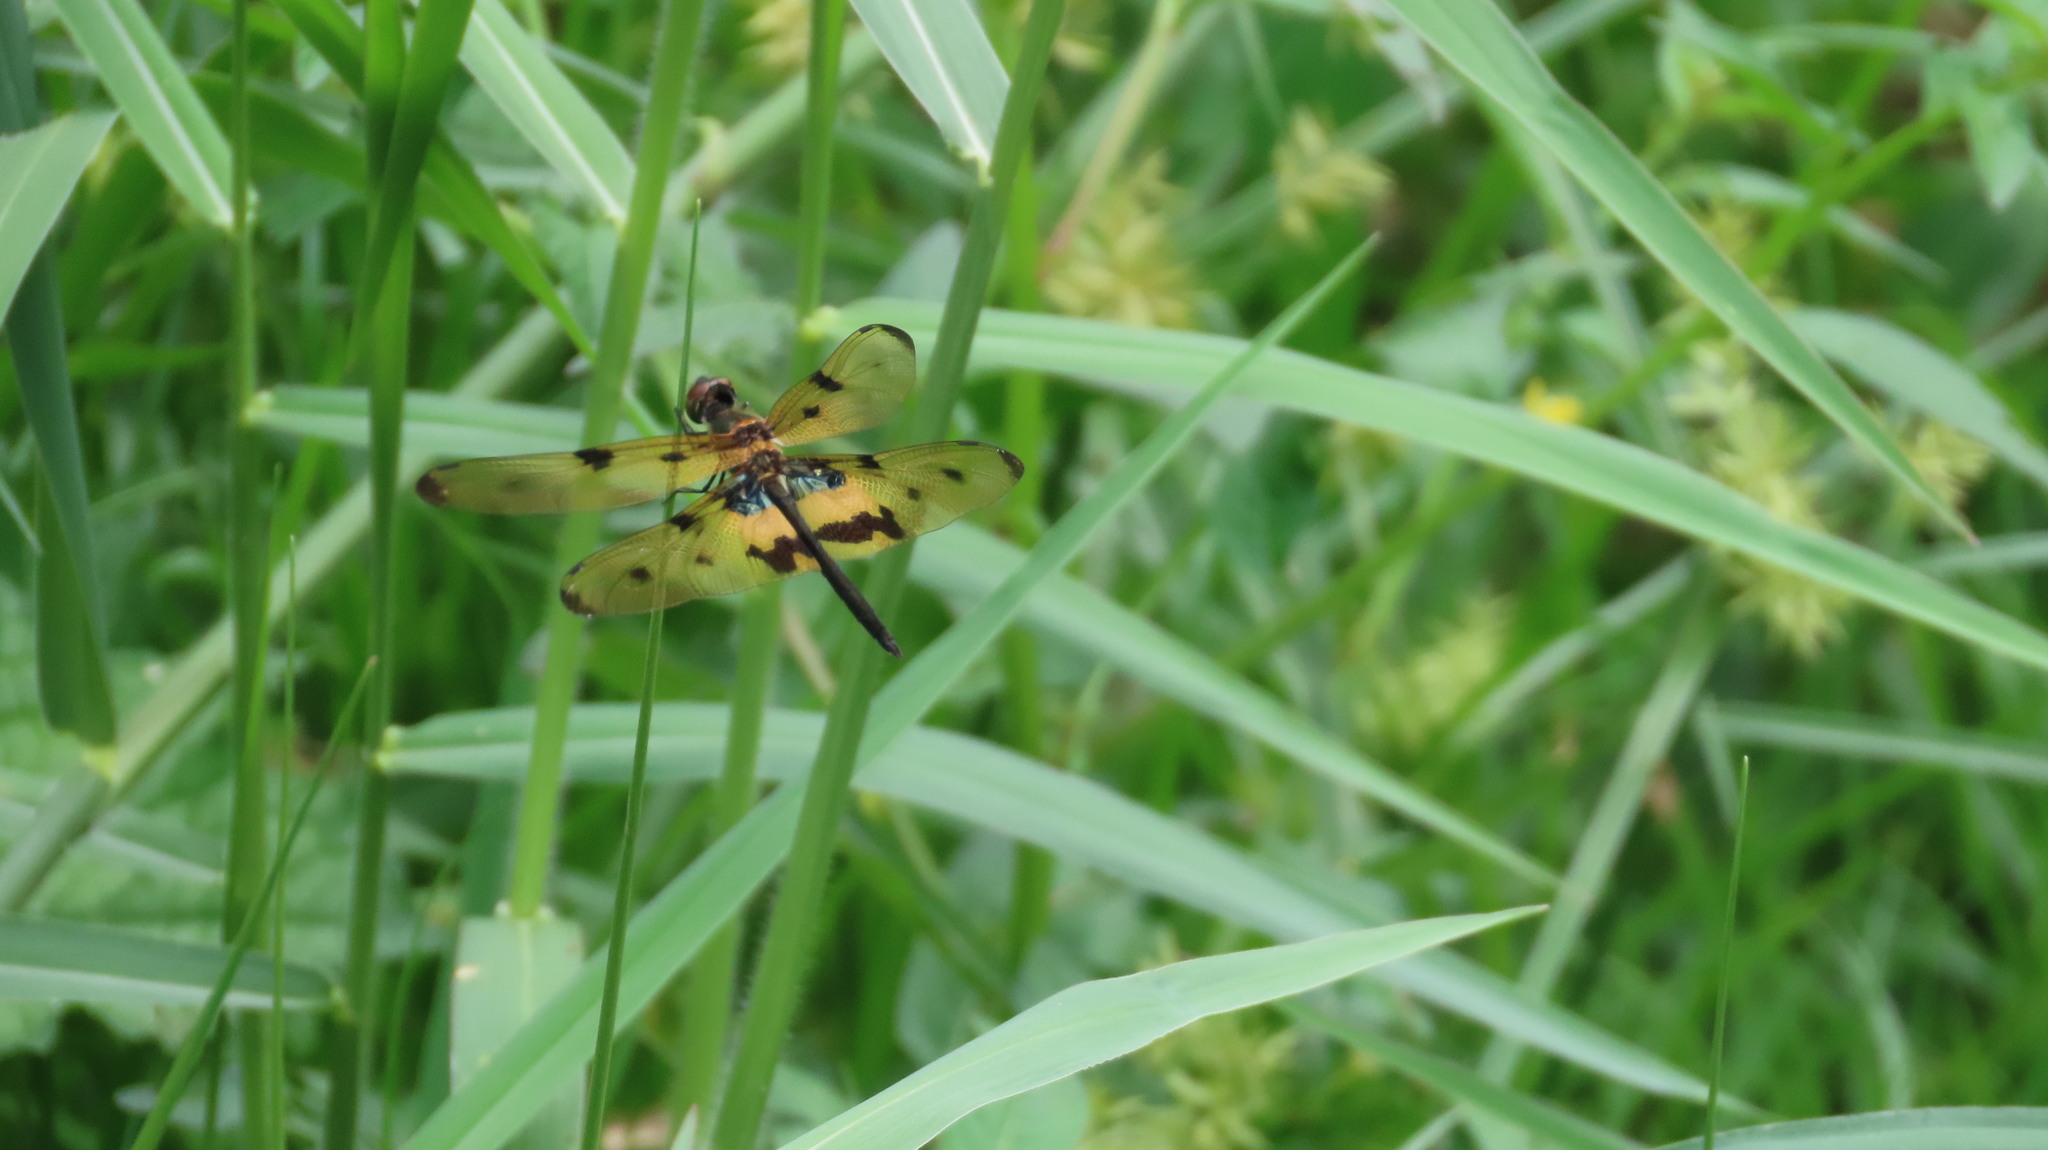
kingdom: Animalia
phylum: Arthropoda
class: Insecta
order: Odonata
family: Libellulidae
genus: Rhyothemis
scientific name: Rhyothemis variegata
